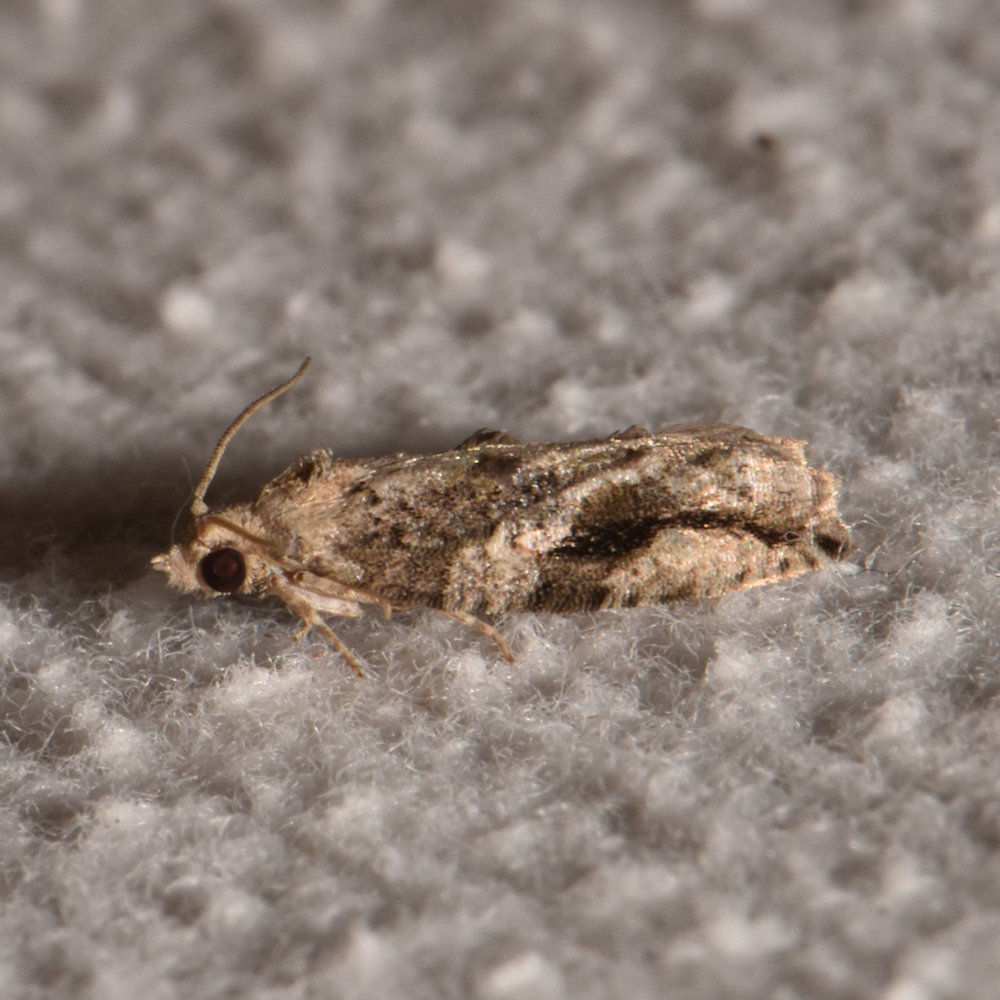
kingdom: Animalia
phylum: Arthropoda
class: Insecta
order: Lepidoptera
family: Tortricidae
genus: Proteoteras
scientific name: Proteoteras crescentana
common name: Black-crescent proteoteras moth
